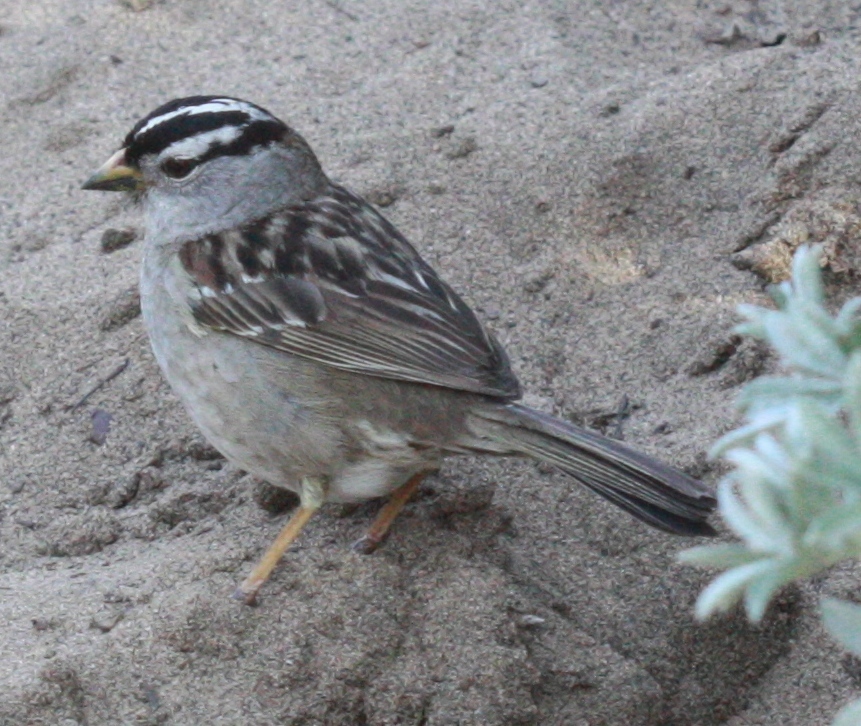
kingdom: Animalia
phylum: Chordata
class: Aves
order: Passeriformes
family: Passerellidae
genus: Zonotrichia
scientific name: Zonotrichia leucophrys
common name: White-crowned sparrow
